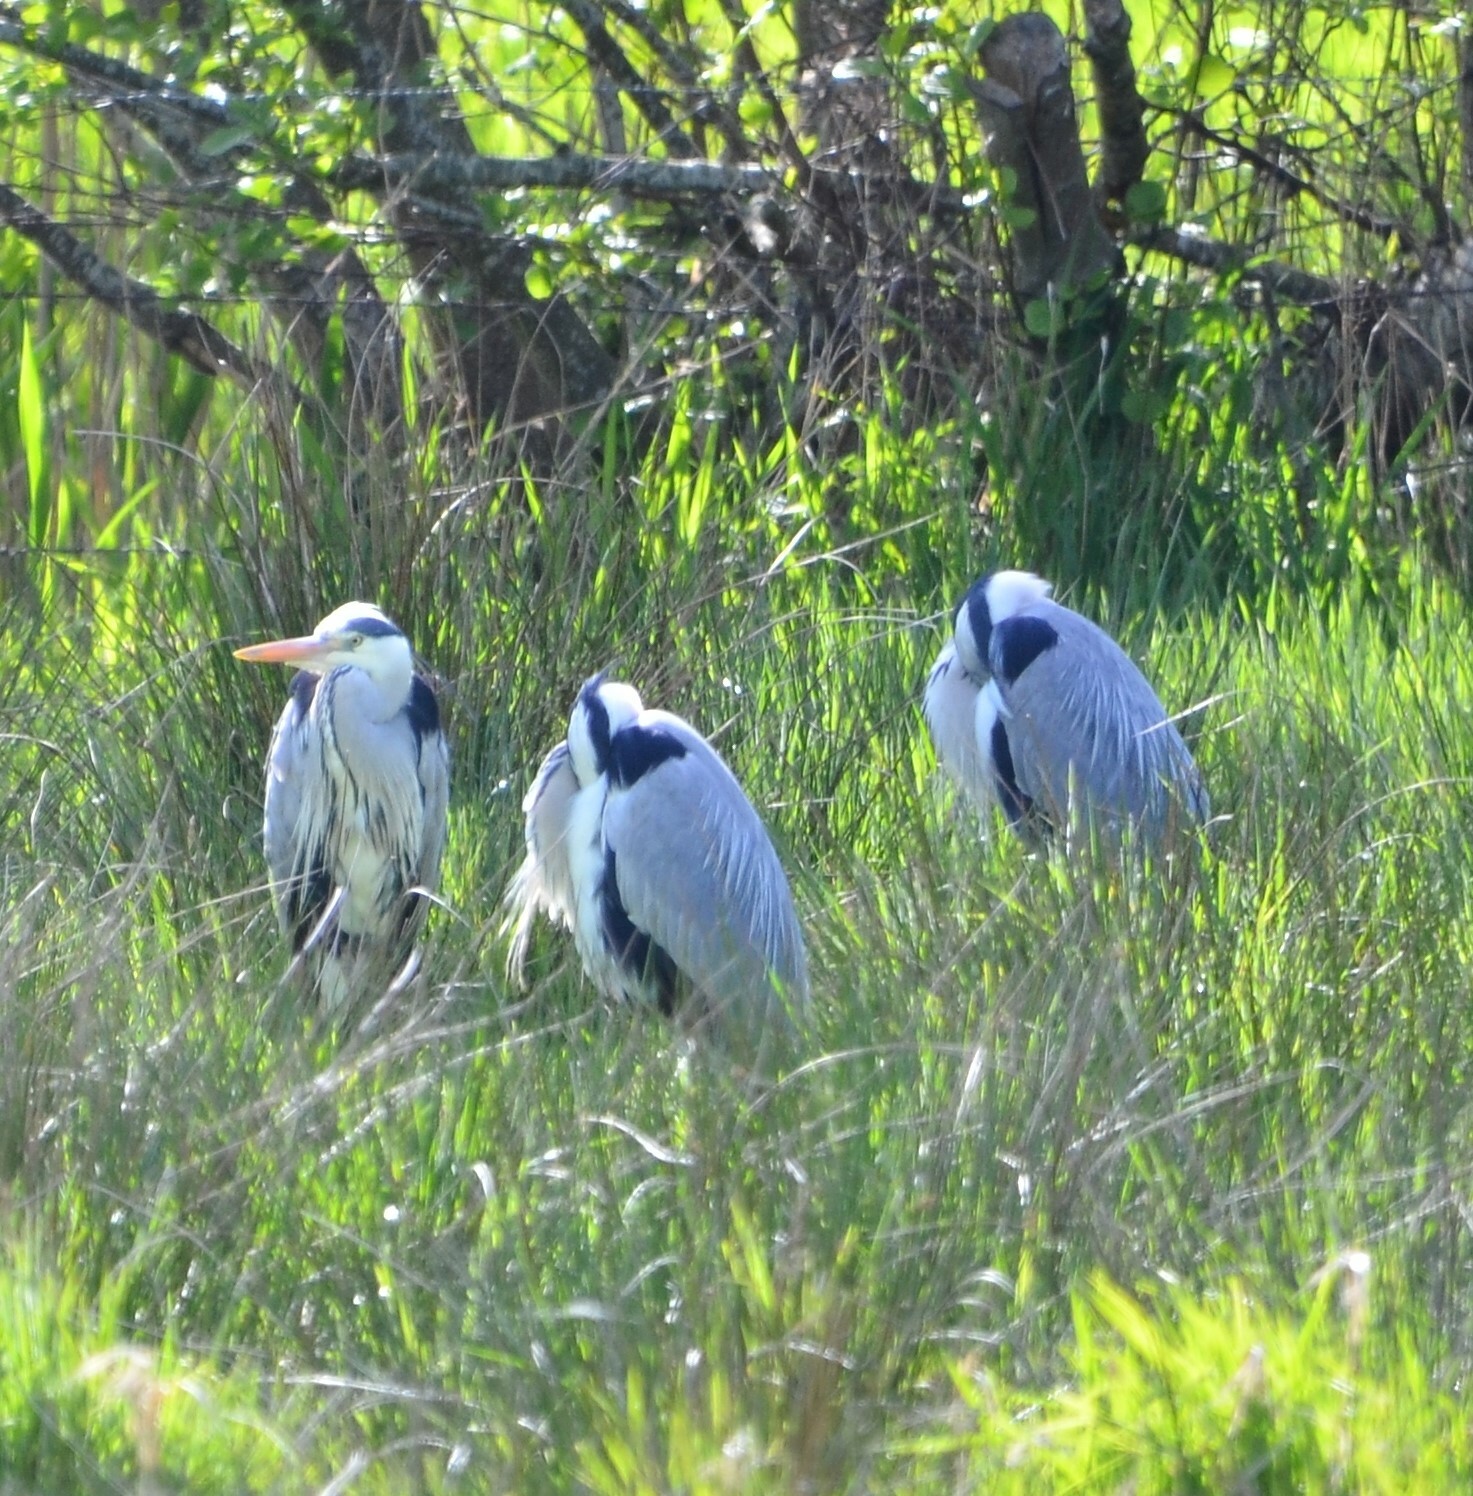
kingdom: Animalia
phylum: Chordata
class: Aves
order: Pelecaniformes
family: Ardeidae
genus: Ardea
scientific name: Ardea cinerea
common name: Grey heron
